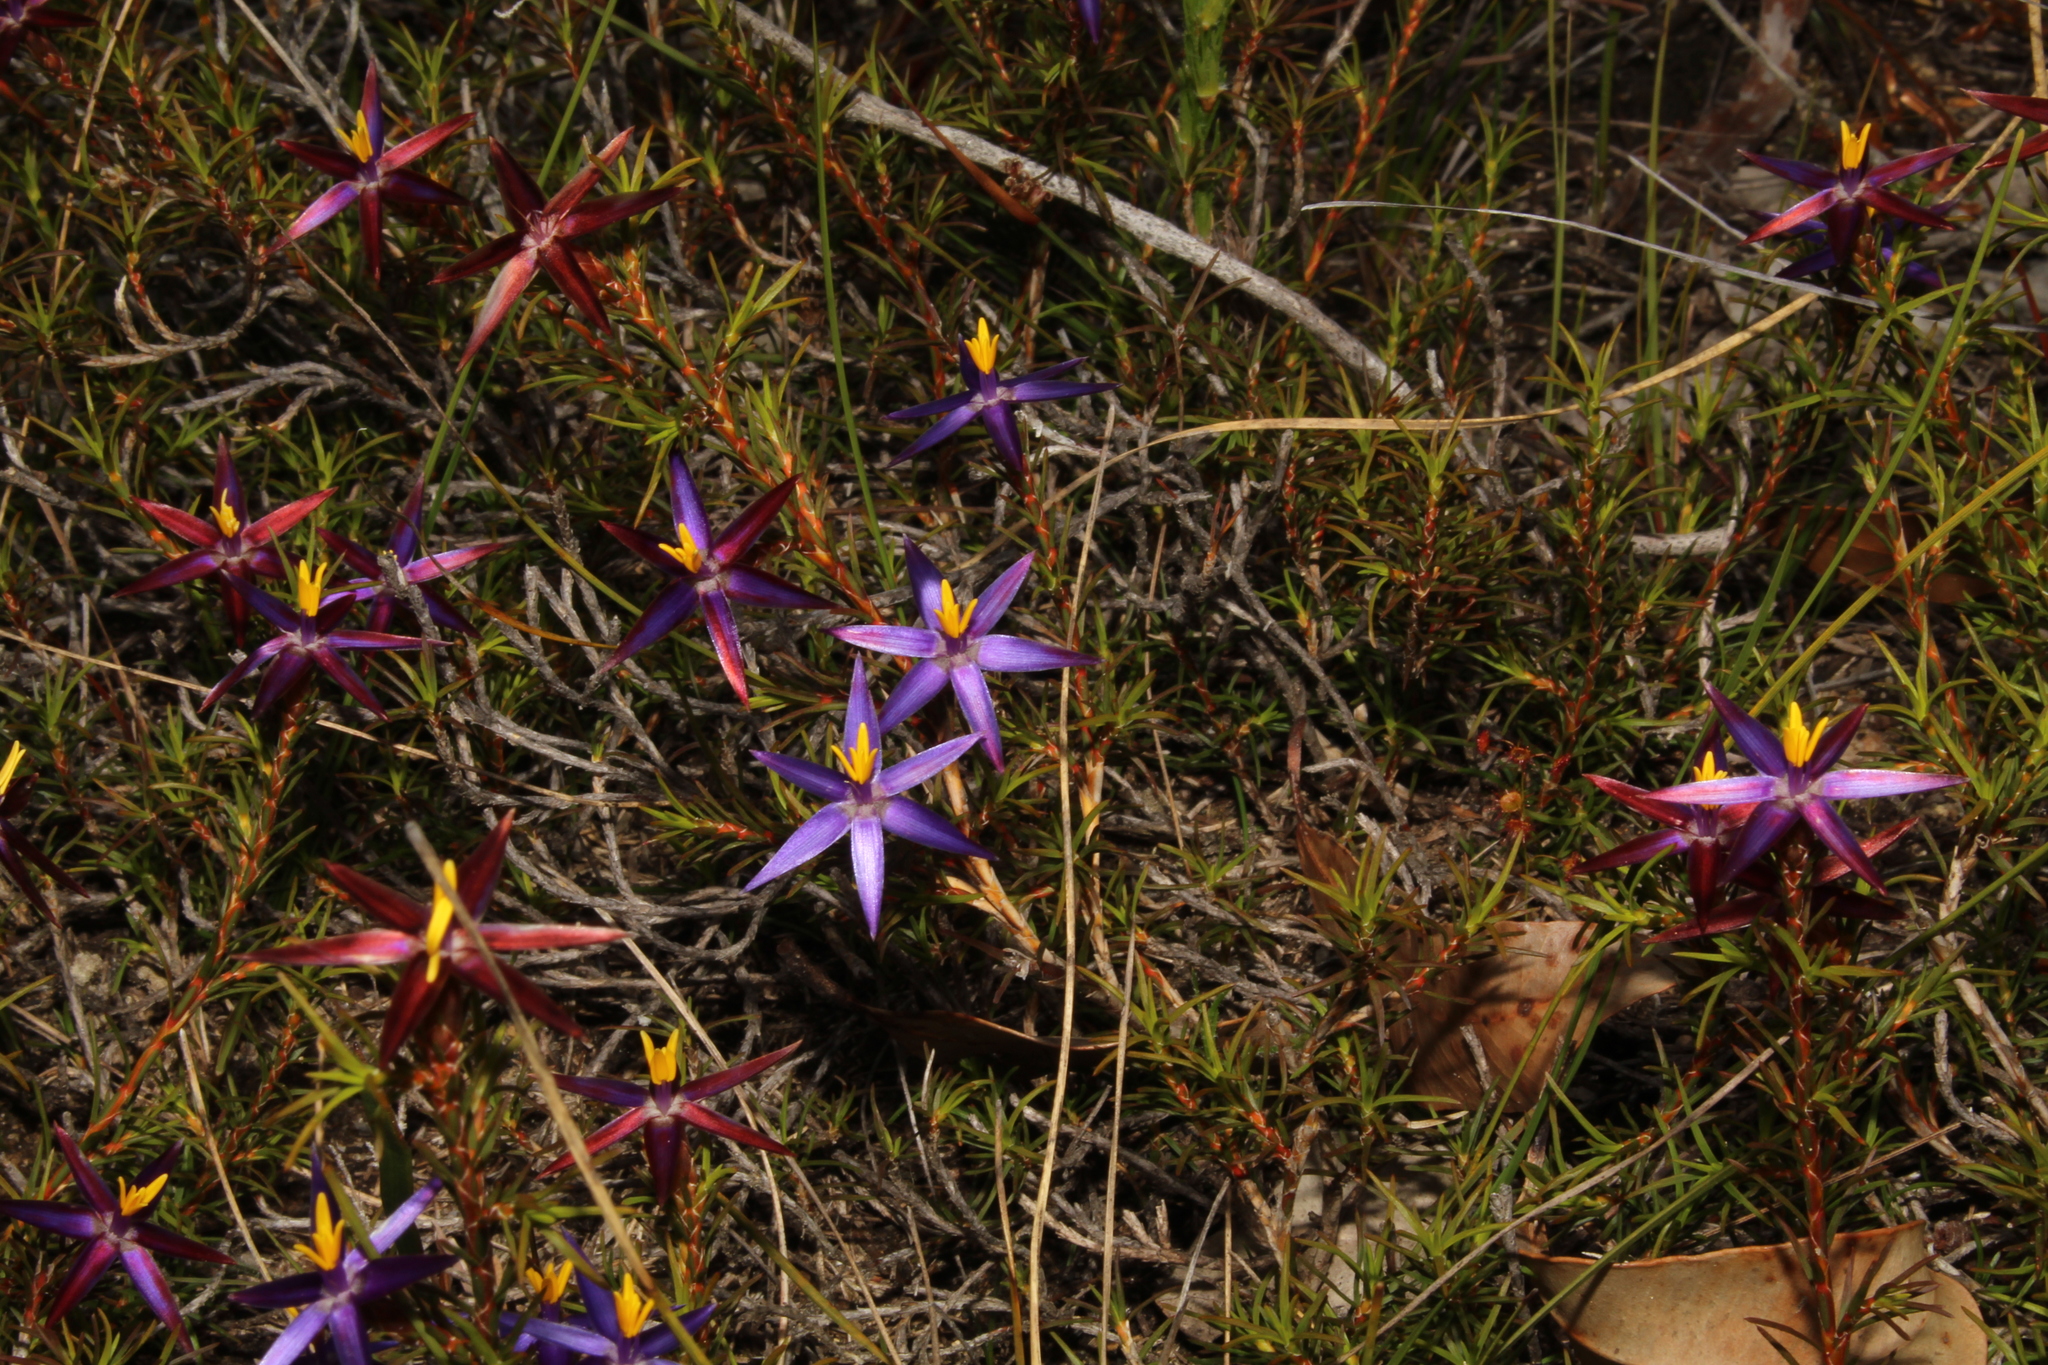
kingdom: Plantae
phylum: Tracheophyta
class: Liliopsida
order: Arecales
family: Dasypogonaceae
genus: Calectasia
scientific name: Calectasia demarzii
